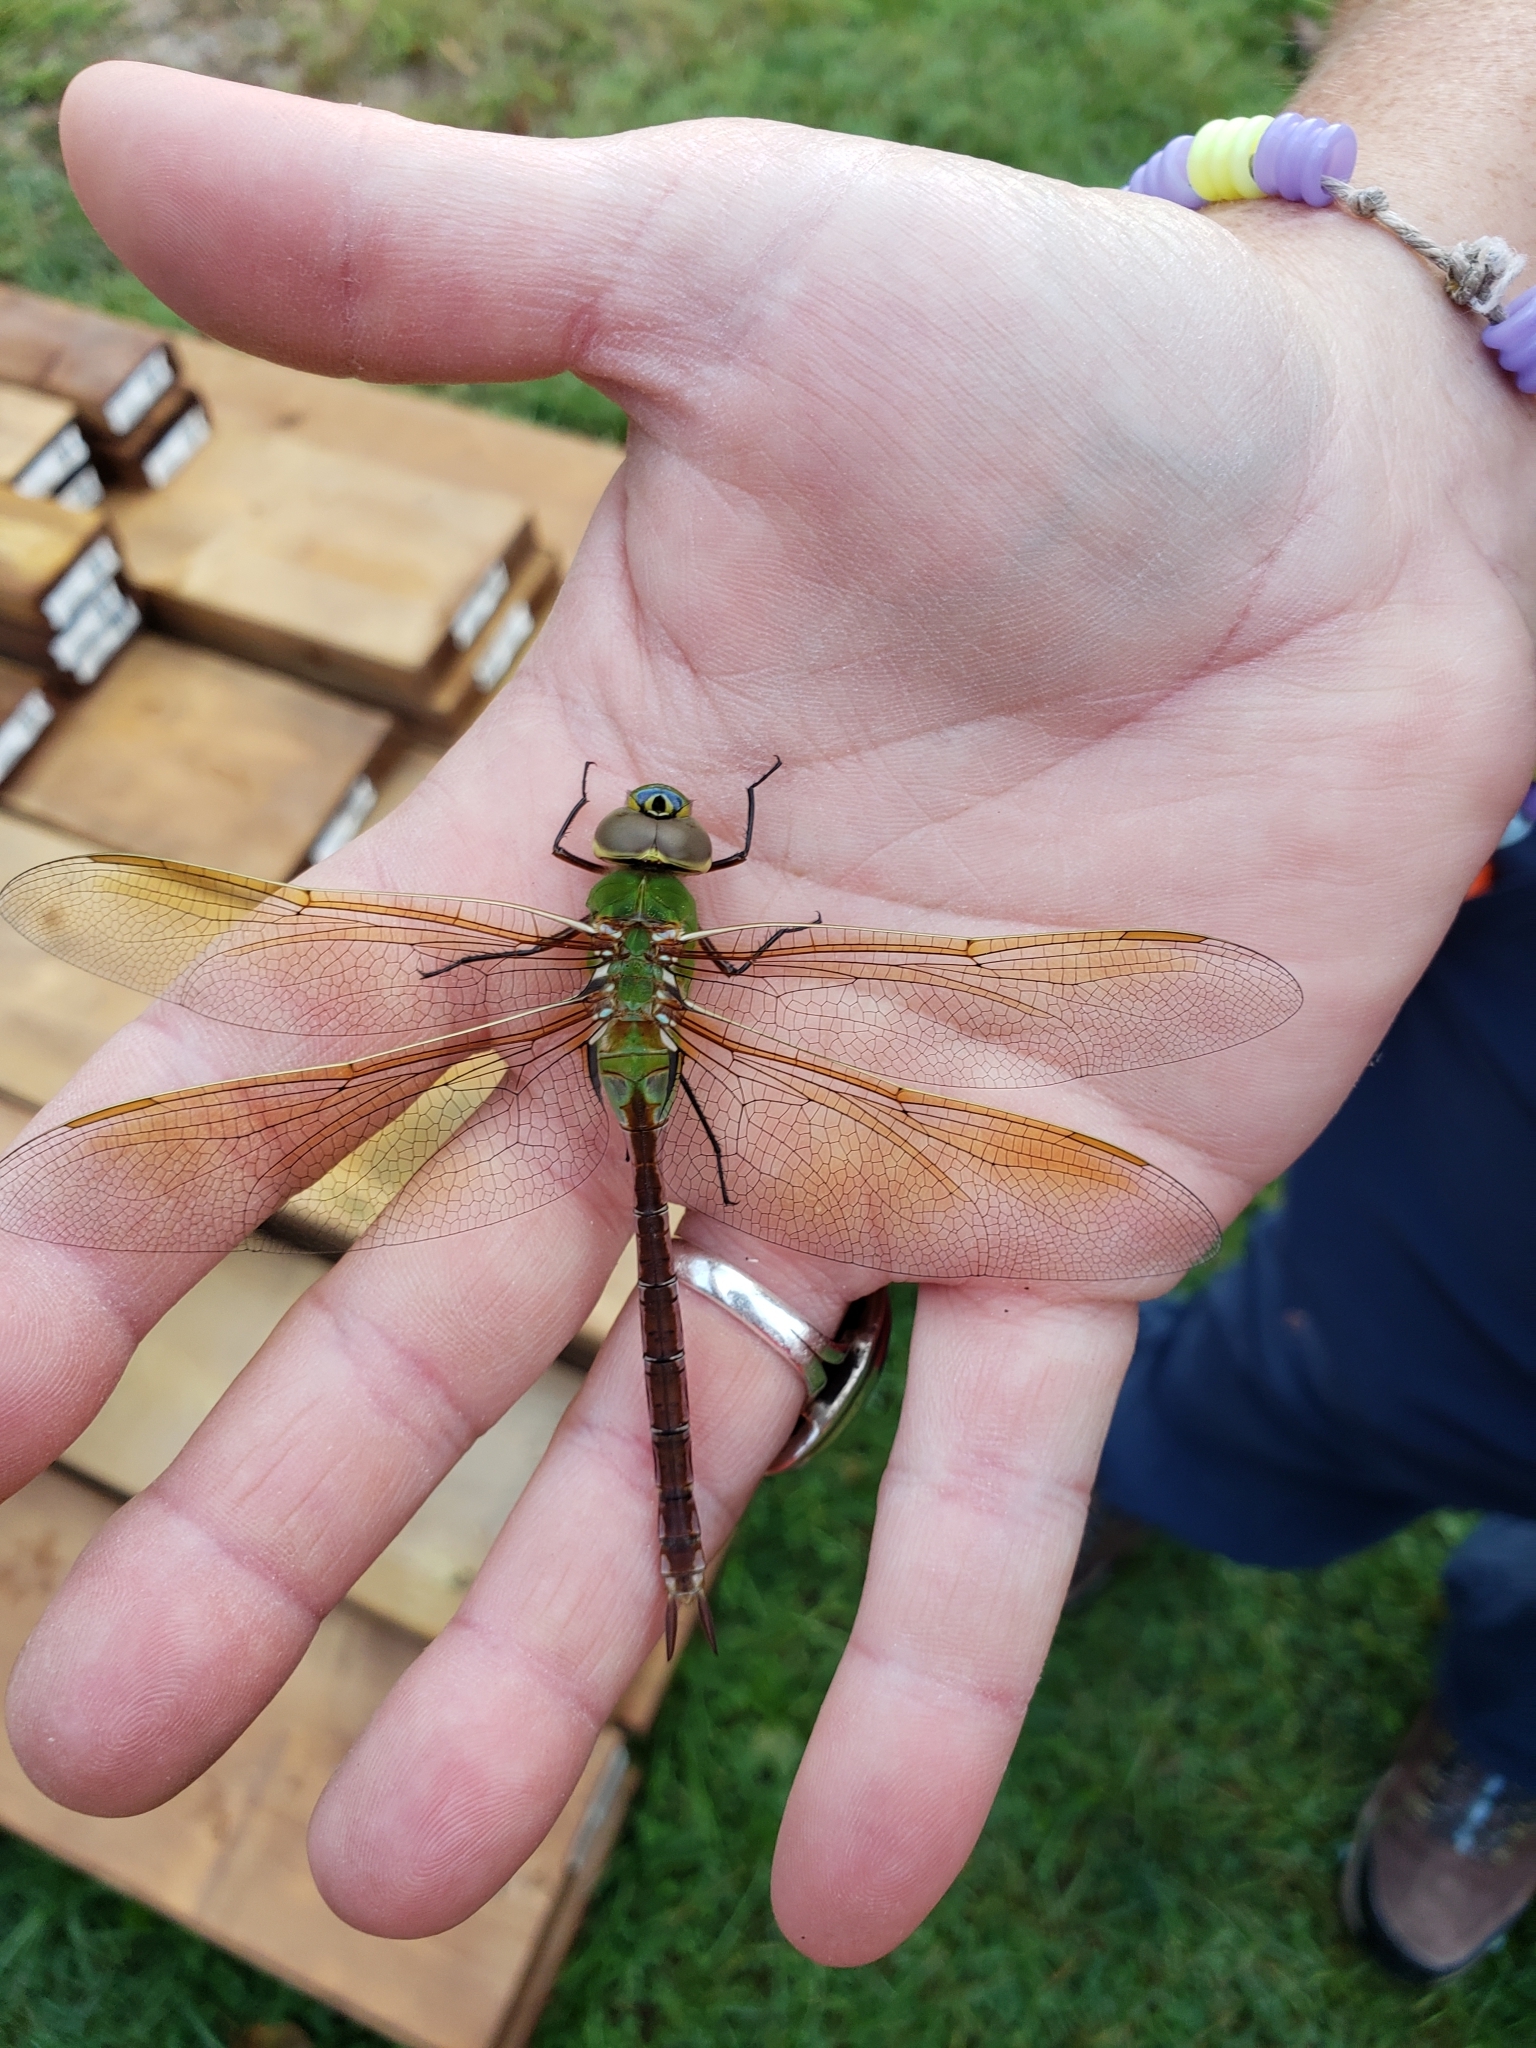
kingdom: Animalia
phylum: Arthropoda
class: Insecta
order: Odonata
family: Aeshnidae
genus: Anax
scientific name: Anax junius
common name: Common green darner
